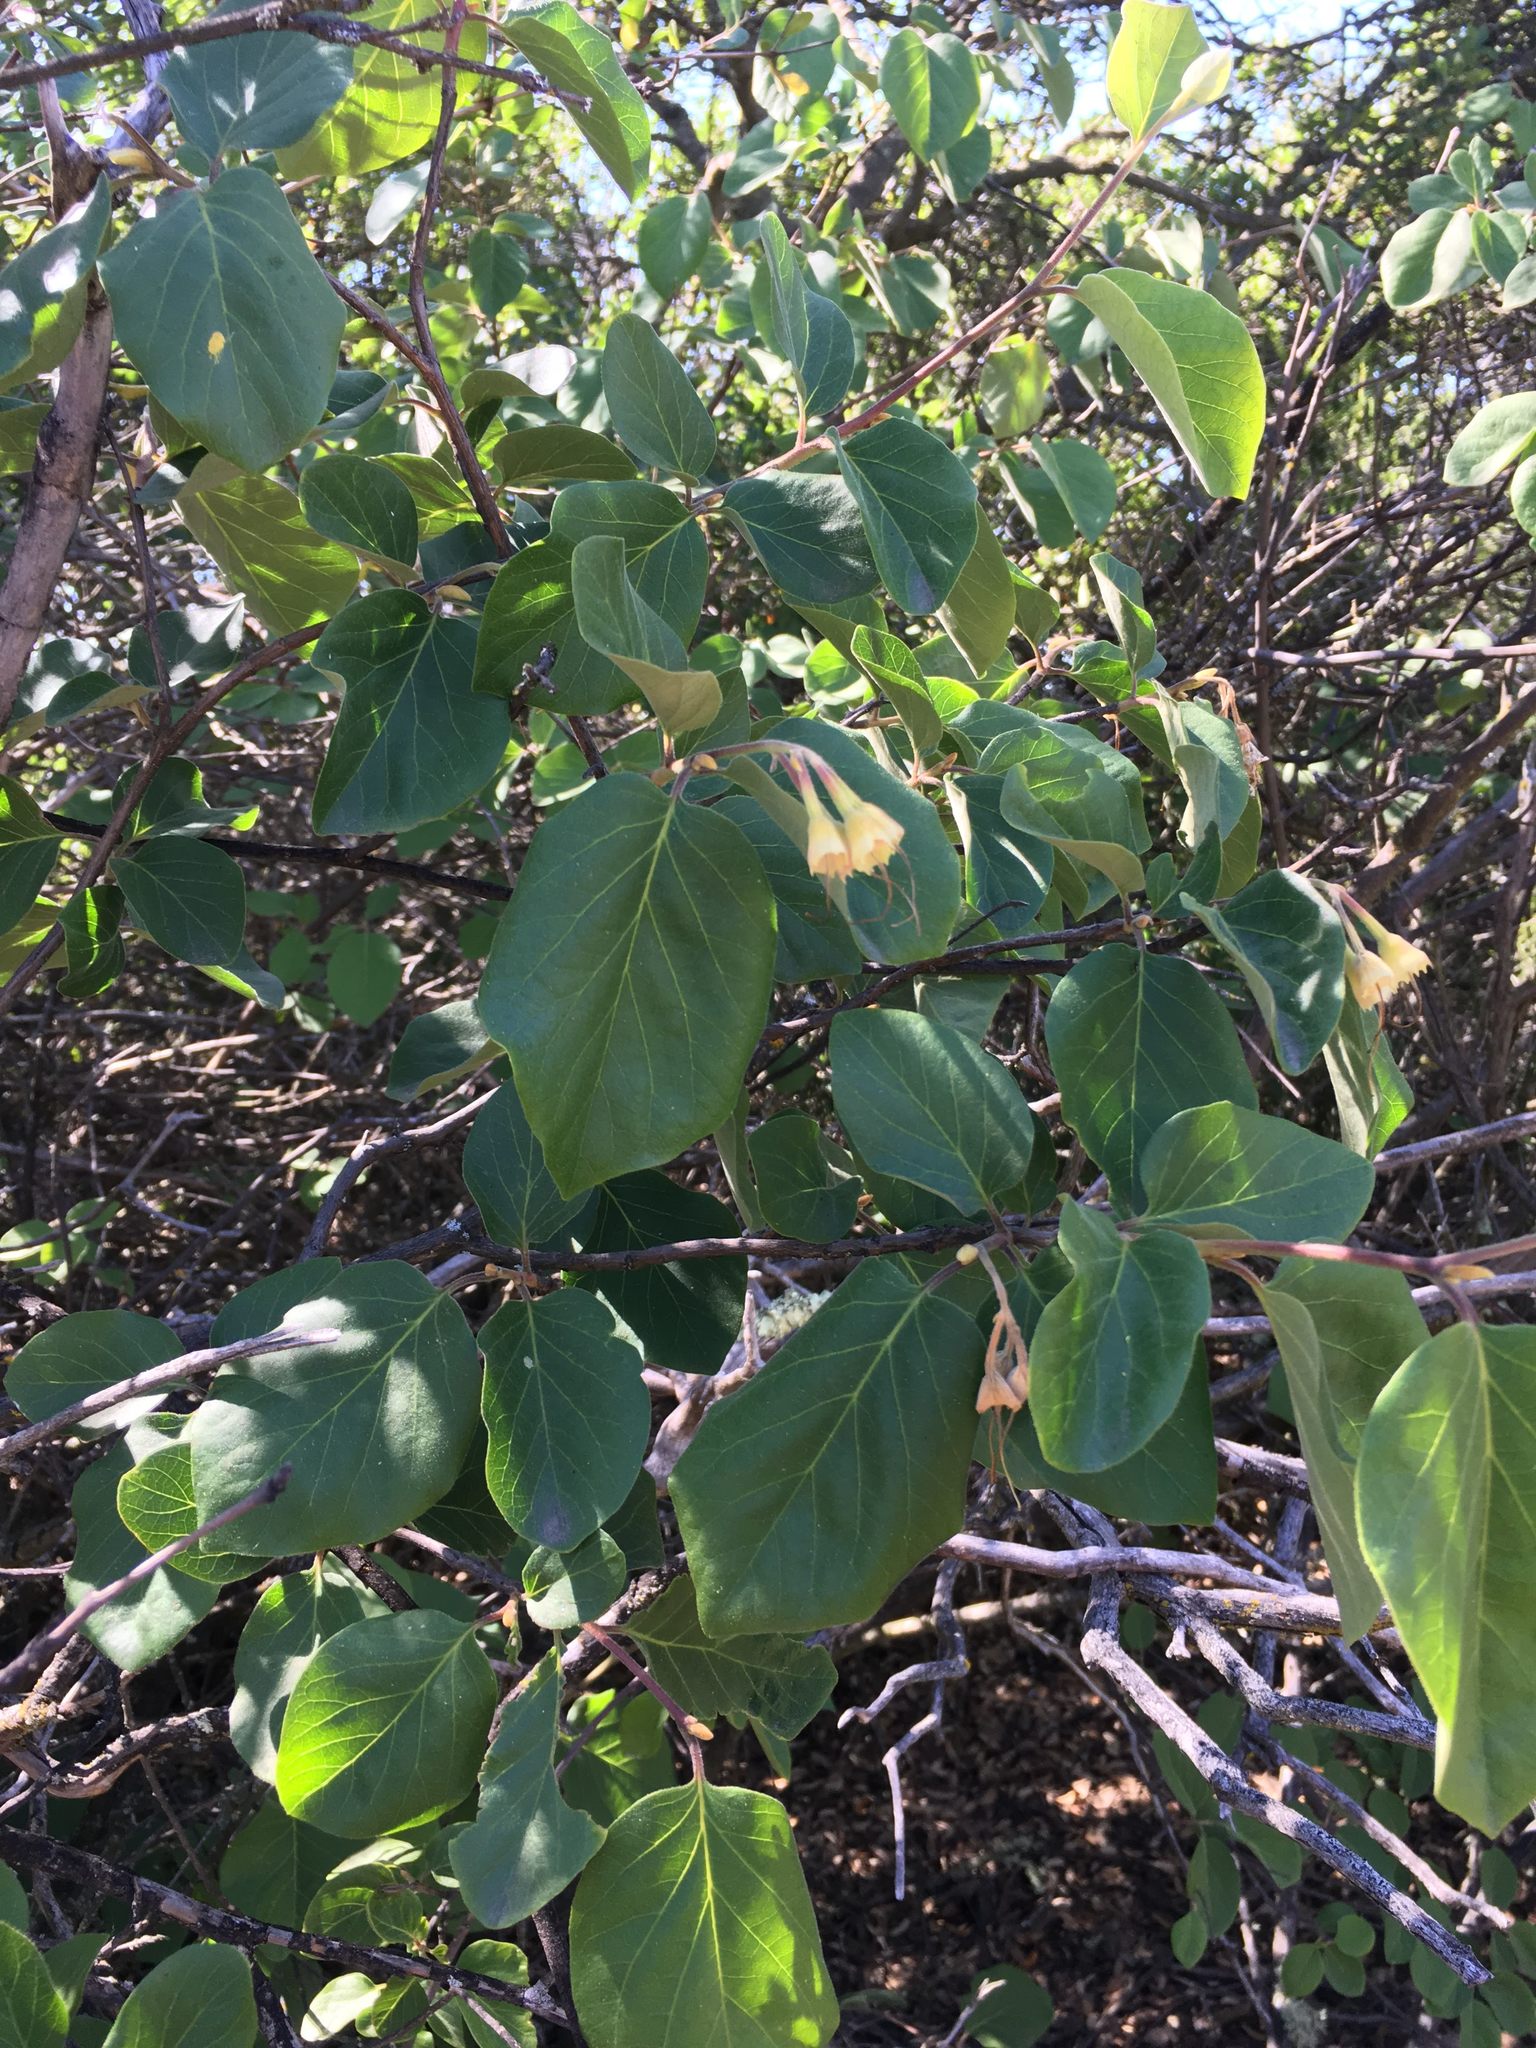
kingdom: Plantae
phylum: Tracheophyta
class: Magnoliopsida
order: Ericales
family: Styracaceae
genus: Styrax
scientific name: Styrax redivivus
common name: California styrax
